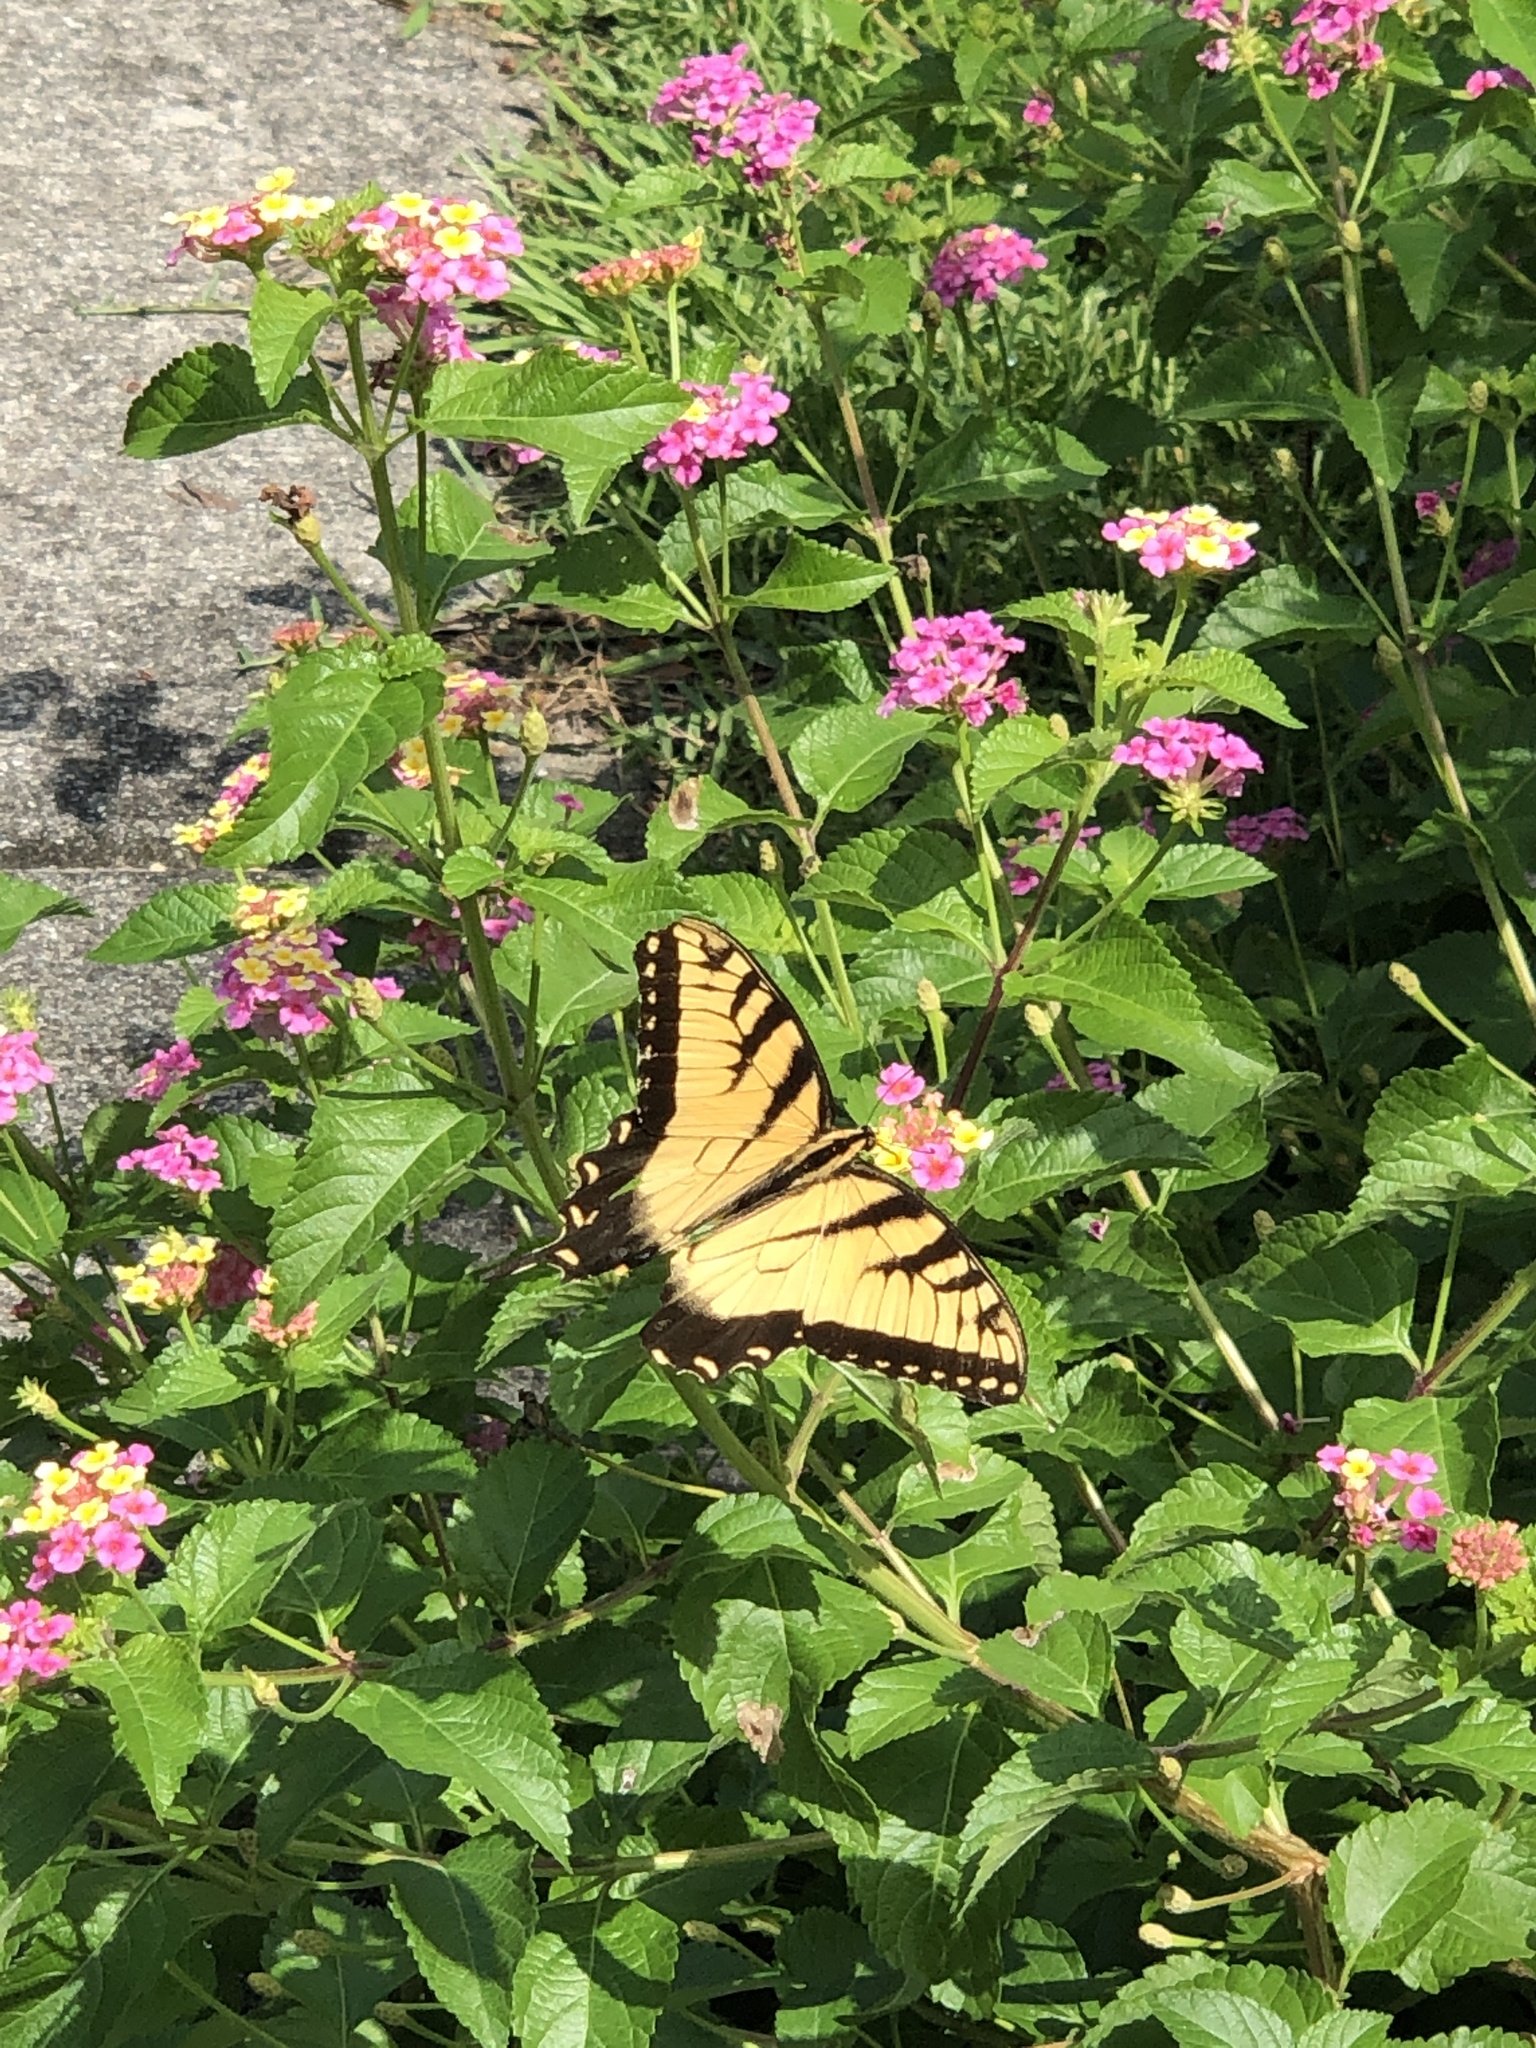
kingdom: Animalia
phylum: Arthropoda
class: Insecta
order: Lepidoptera
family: Papilionidae
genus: Papilio
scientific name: Papilio glaucus
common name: Tiger swallowtail
